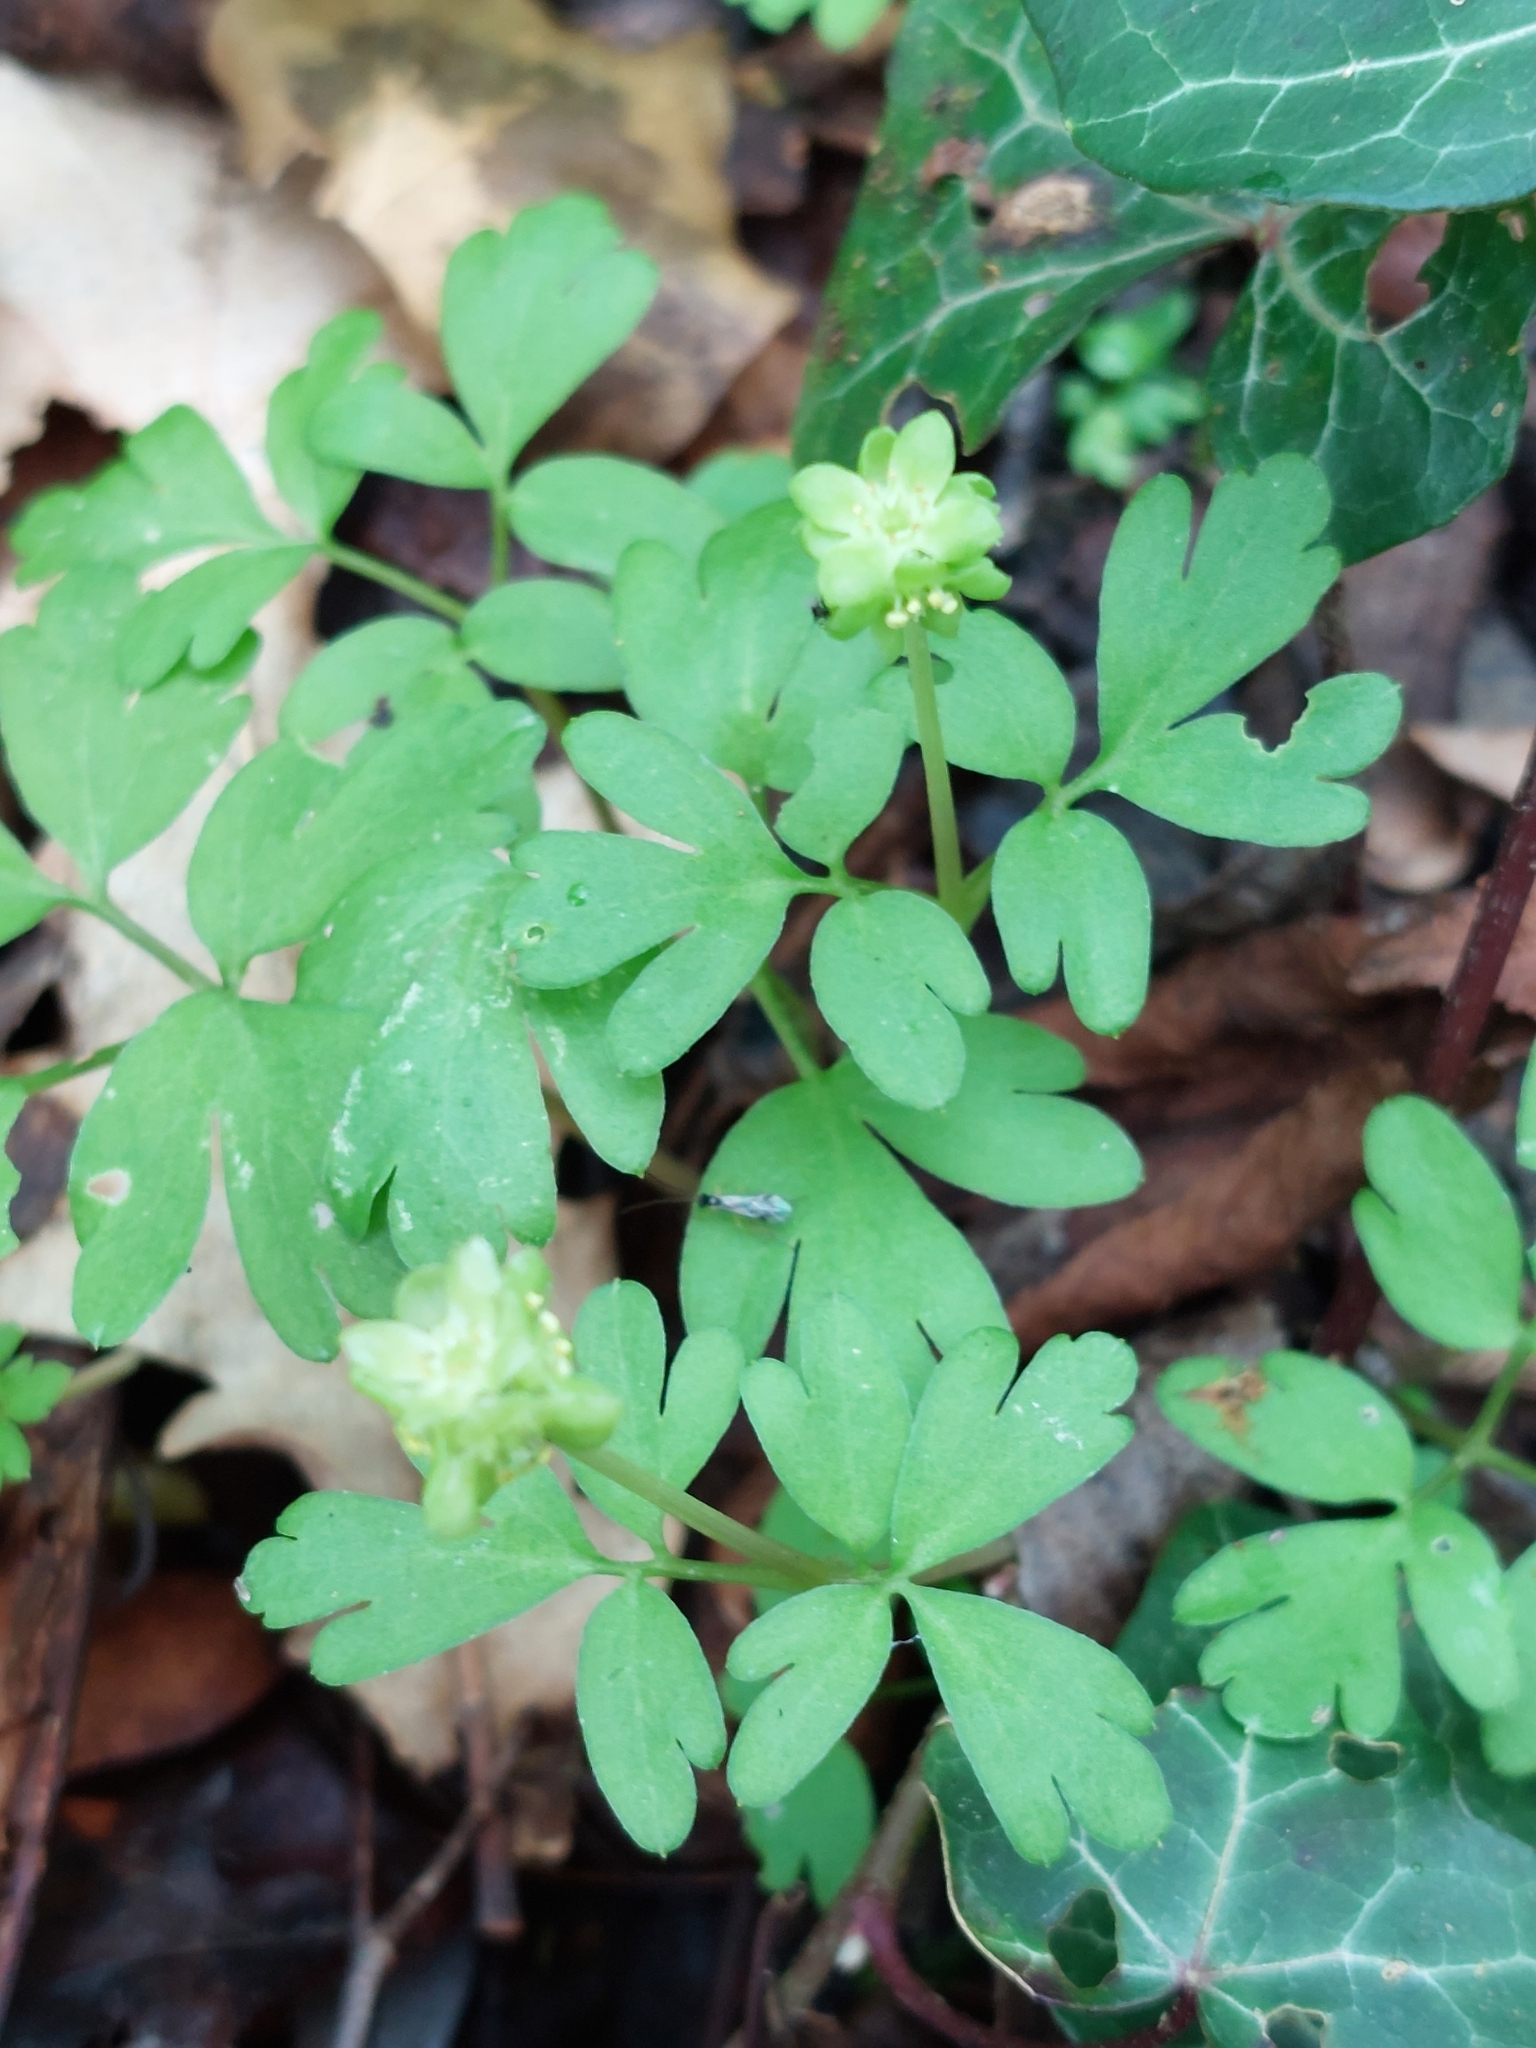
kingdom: Plantae
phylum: Tracheophyta
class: Magnoliopsida
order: Dipsacales
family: Viburnaceae
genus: Adoxa
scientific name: Adoxa moschatellina
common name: Moschatel
